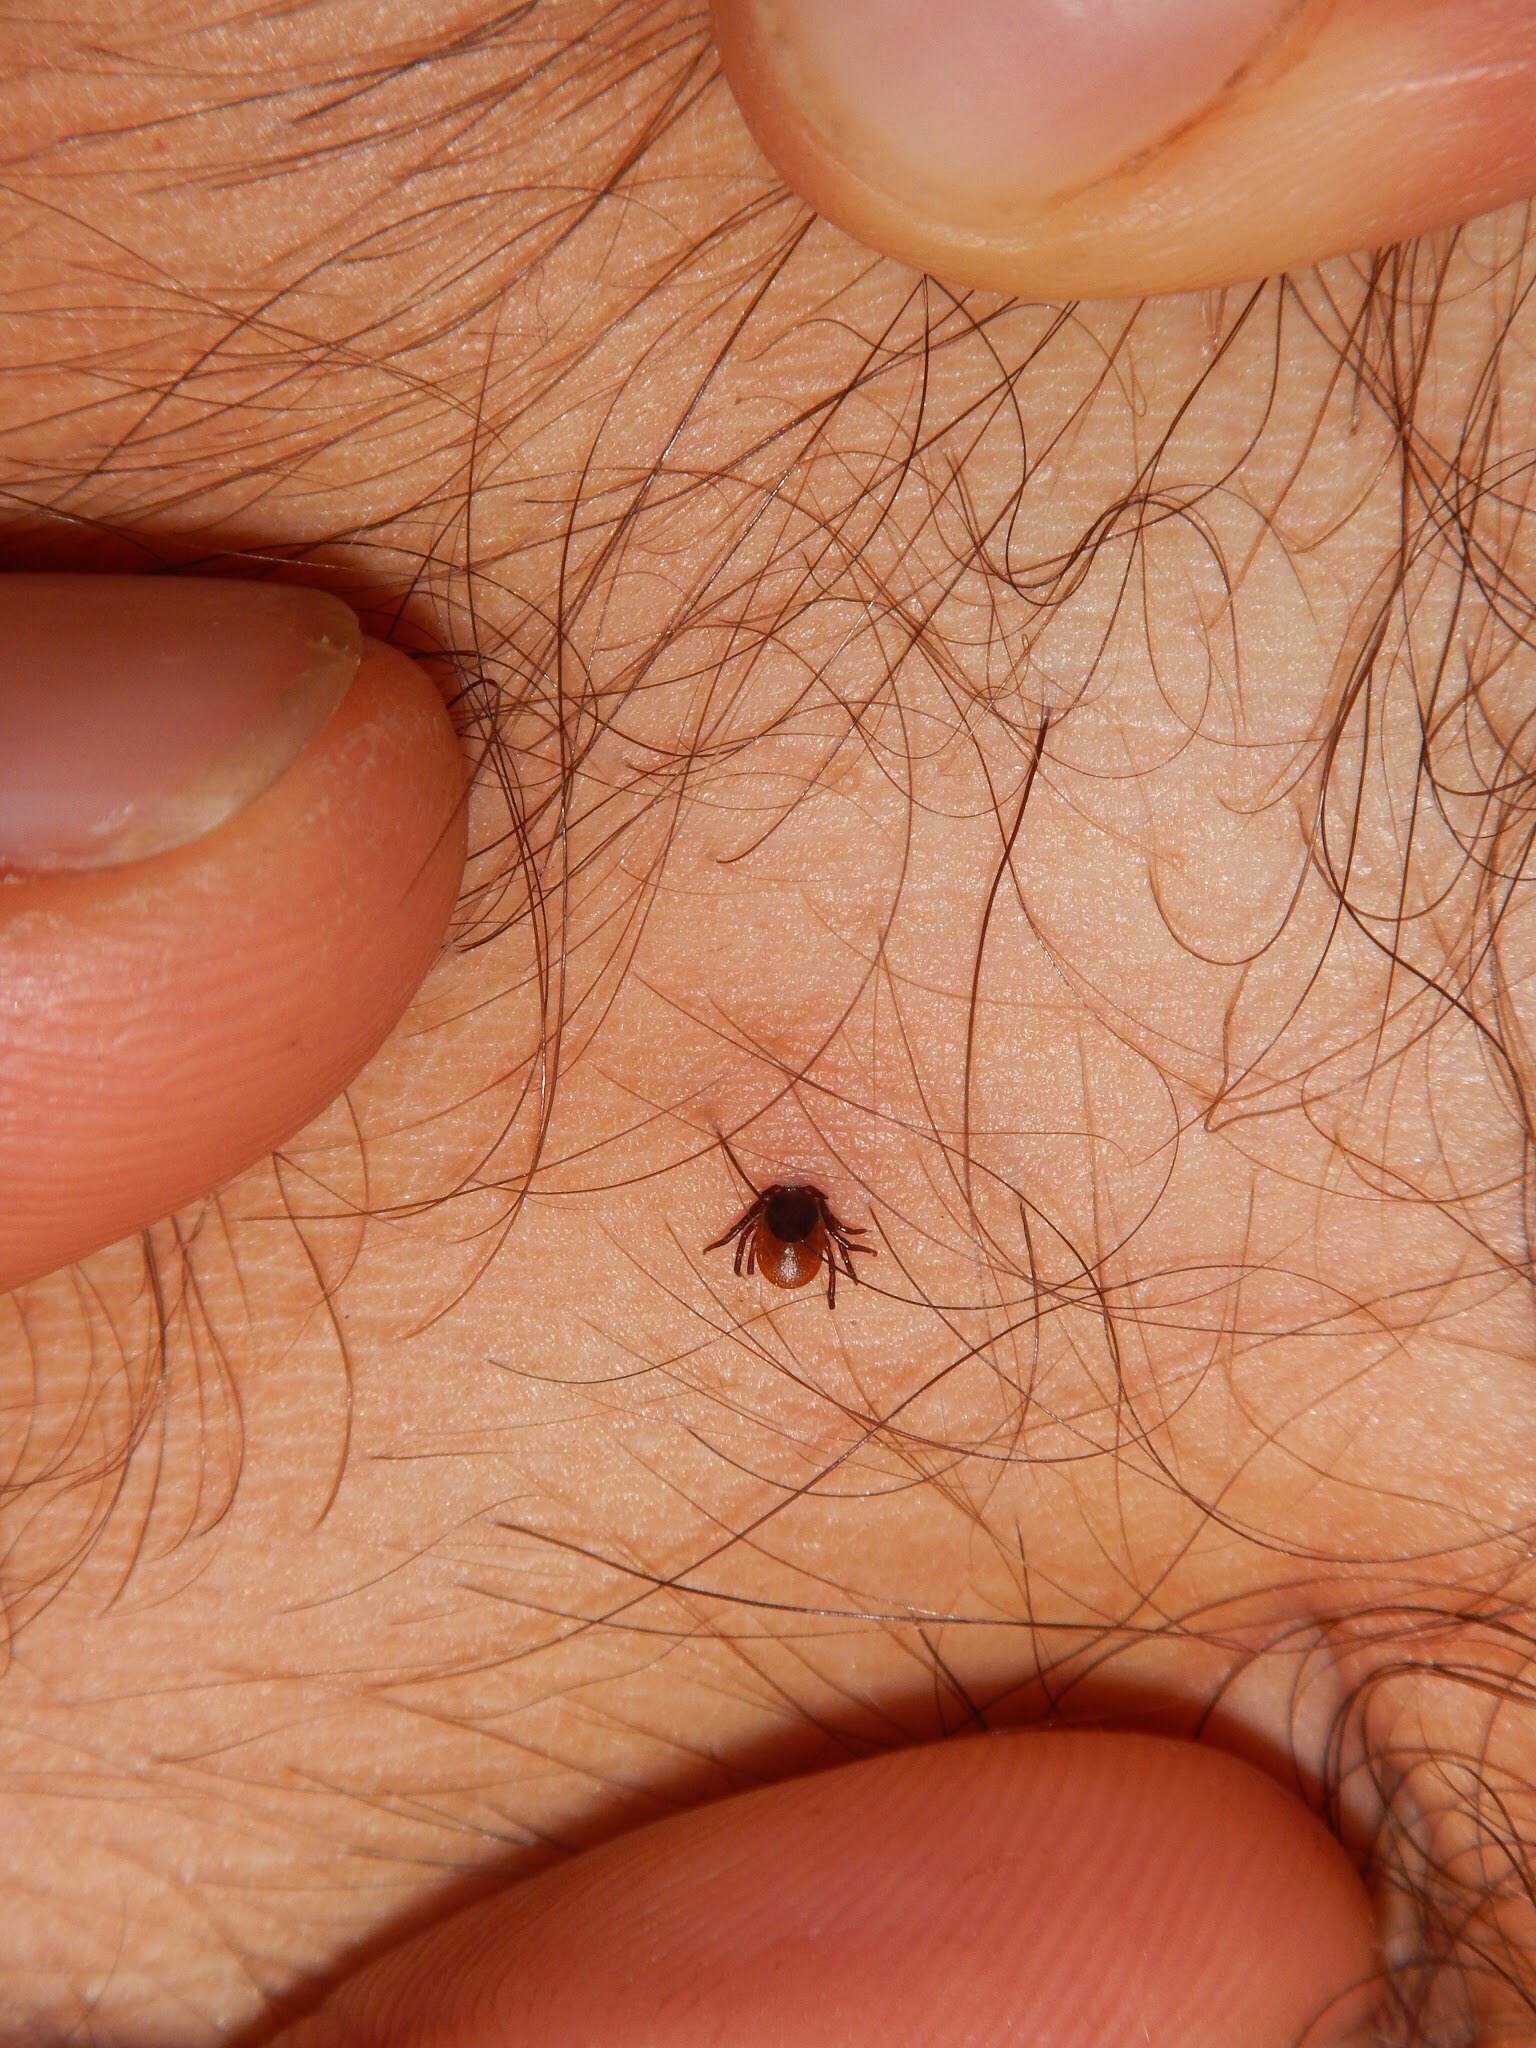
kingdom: Animalia
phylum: Arthropoda
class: Arachnida
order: Ixodida
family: Ixodidae
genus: Ixodes
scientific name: Ixodes ricinus
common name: Castor bean tick
